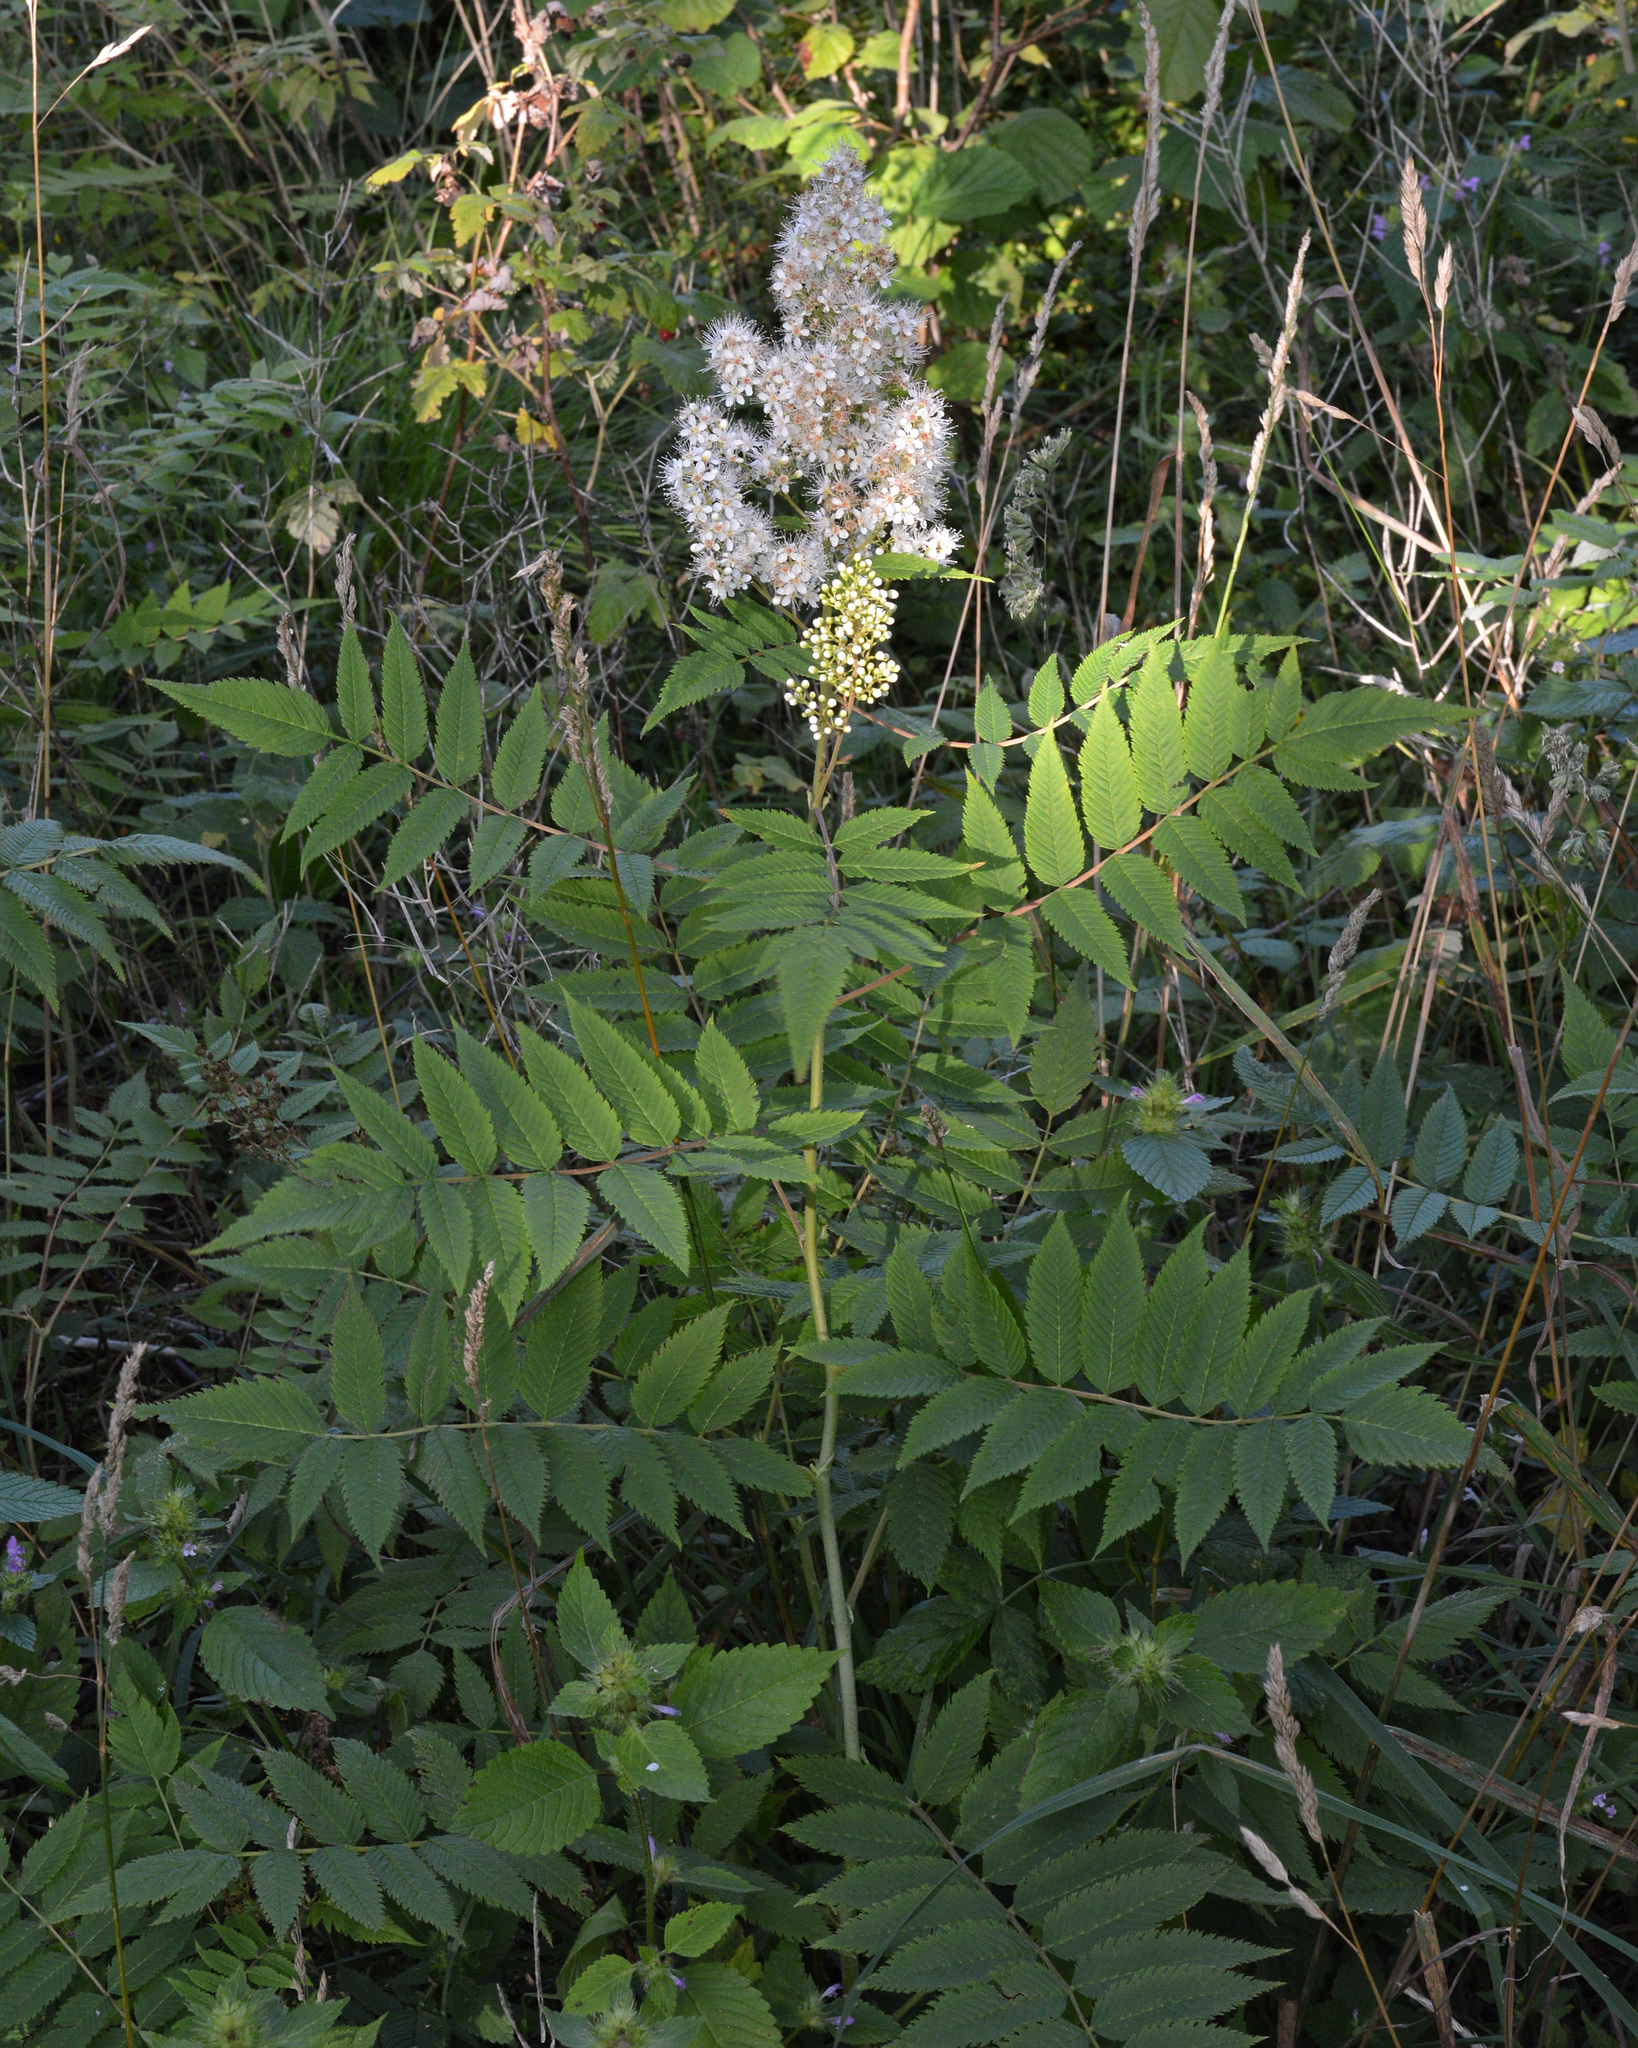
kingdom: Plantae
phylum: Tracheophyta
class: Magnoliopsida
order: Rosales
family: Rosaceae
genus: Sorbaria
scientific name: Sorbaria sorbifolia
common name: False spiraea
